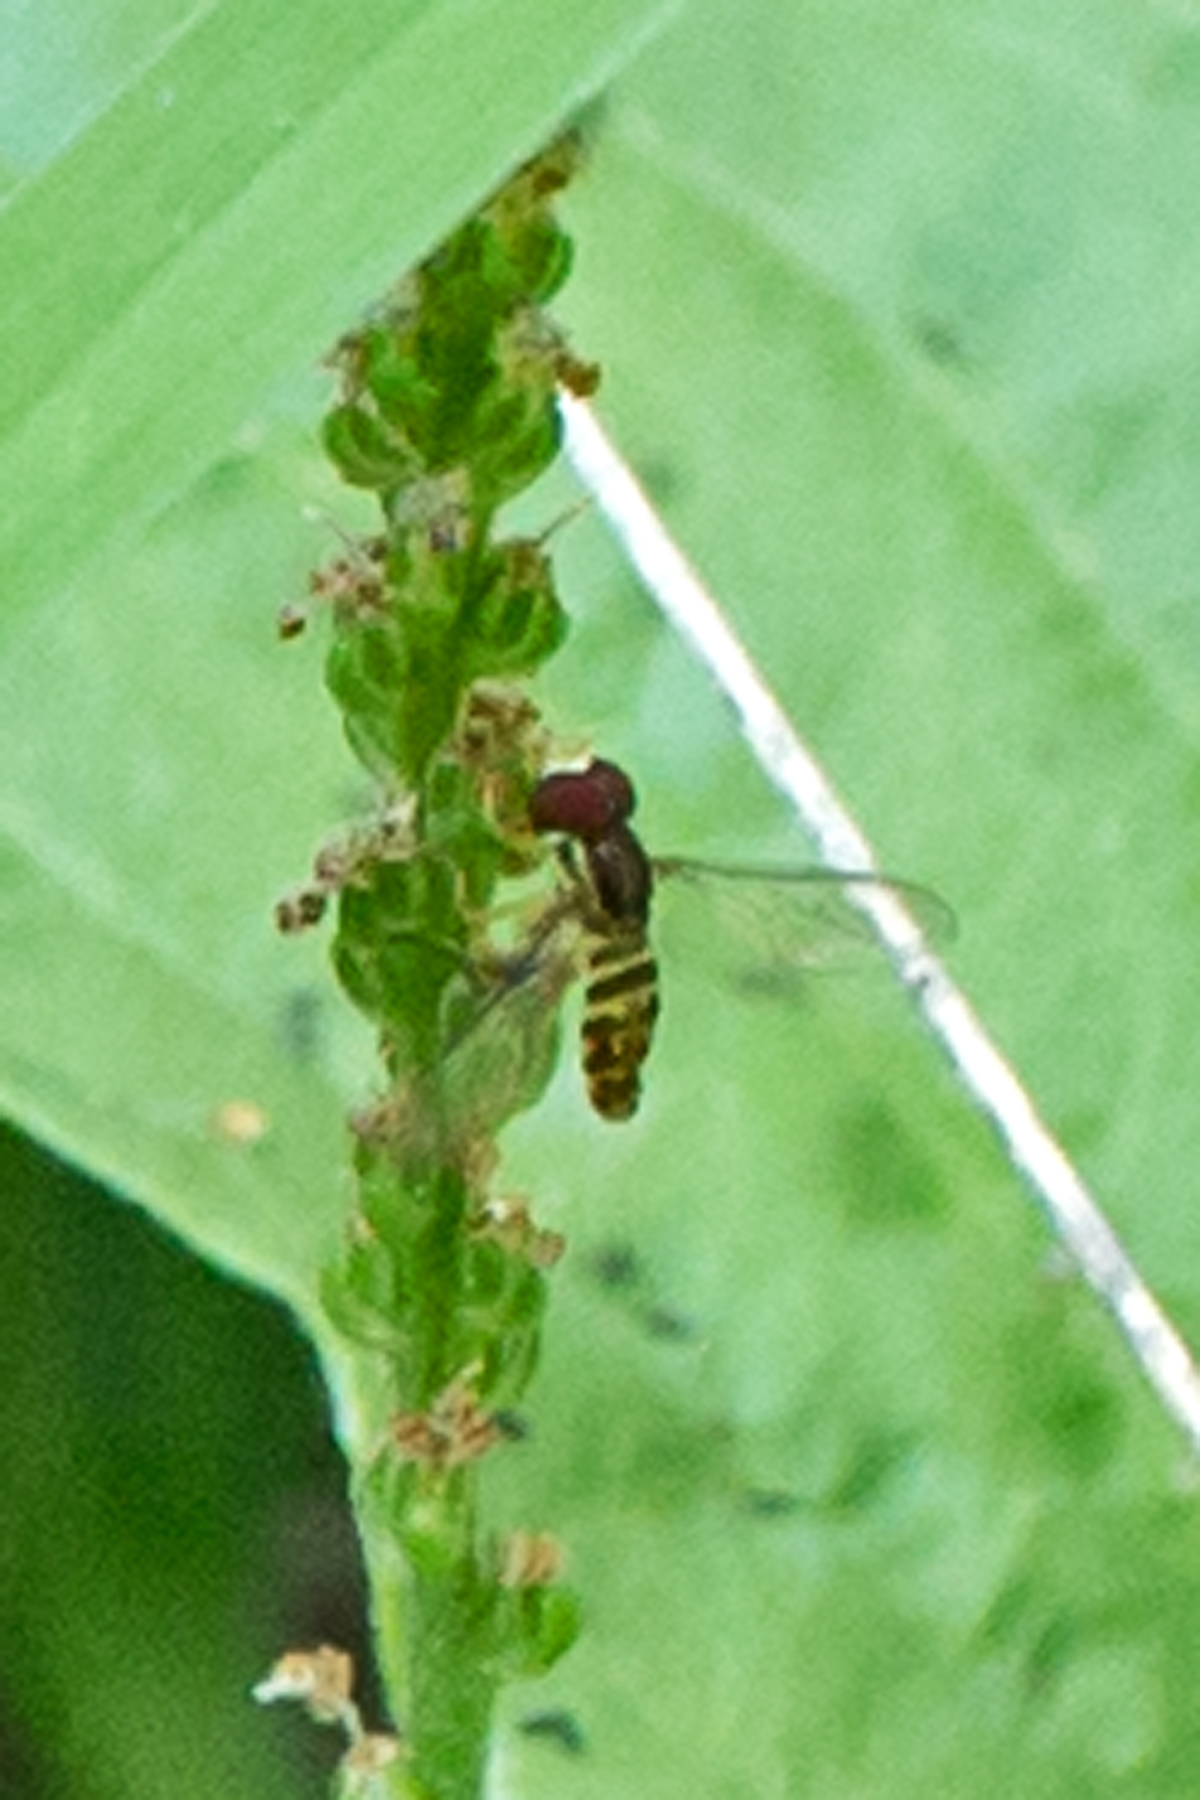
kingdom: Animalia
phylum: Arthropoda
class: Insecta
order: Diptera
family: Syrphidae
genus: Toxomerus
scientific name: Toxomerus geminatus
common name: Eastern calligrapher
